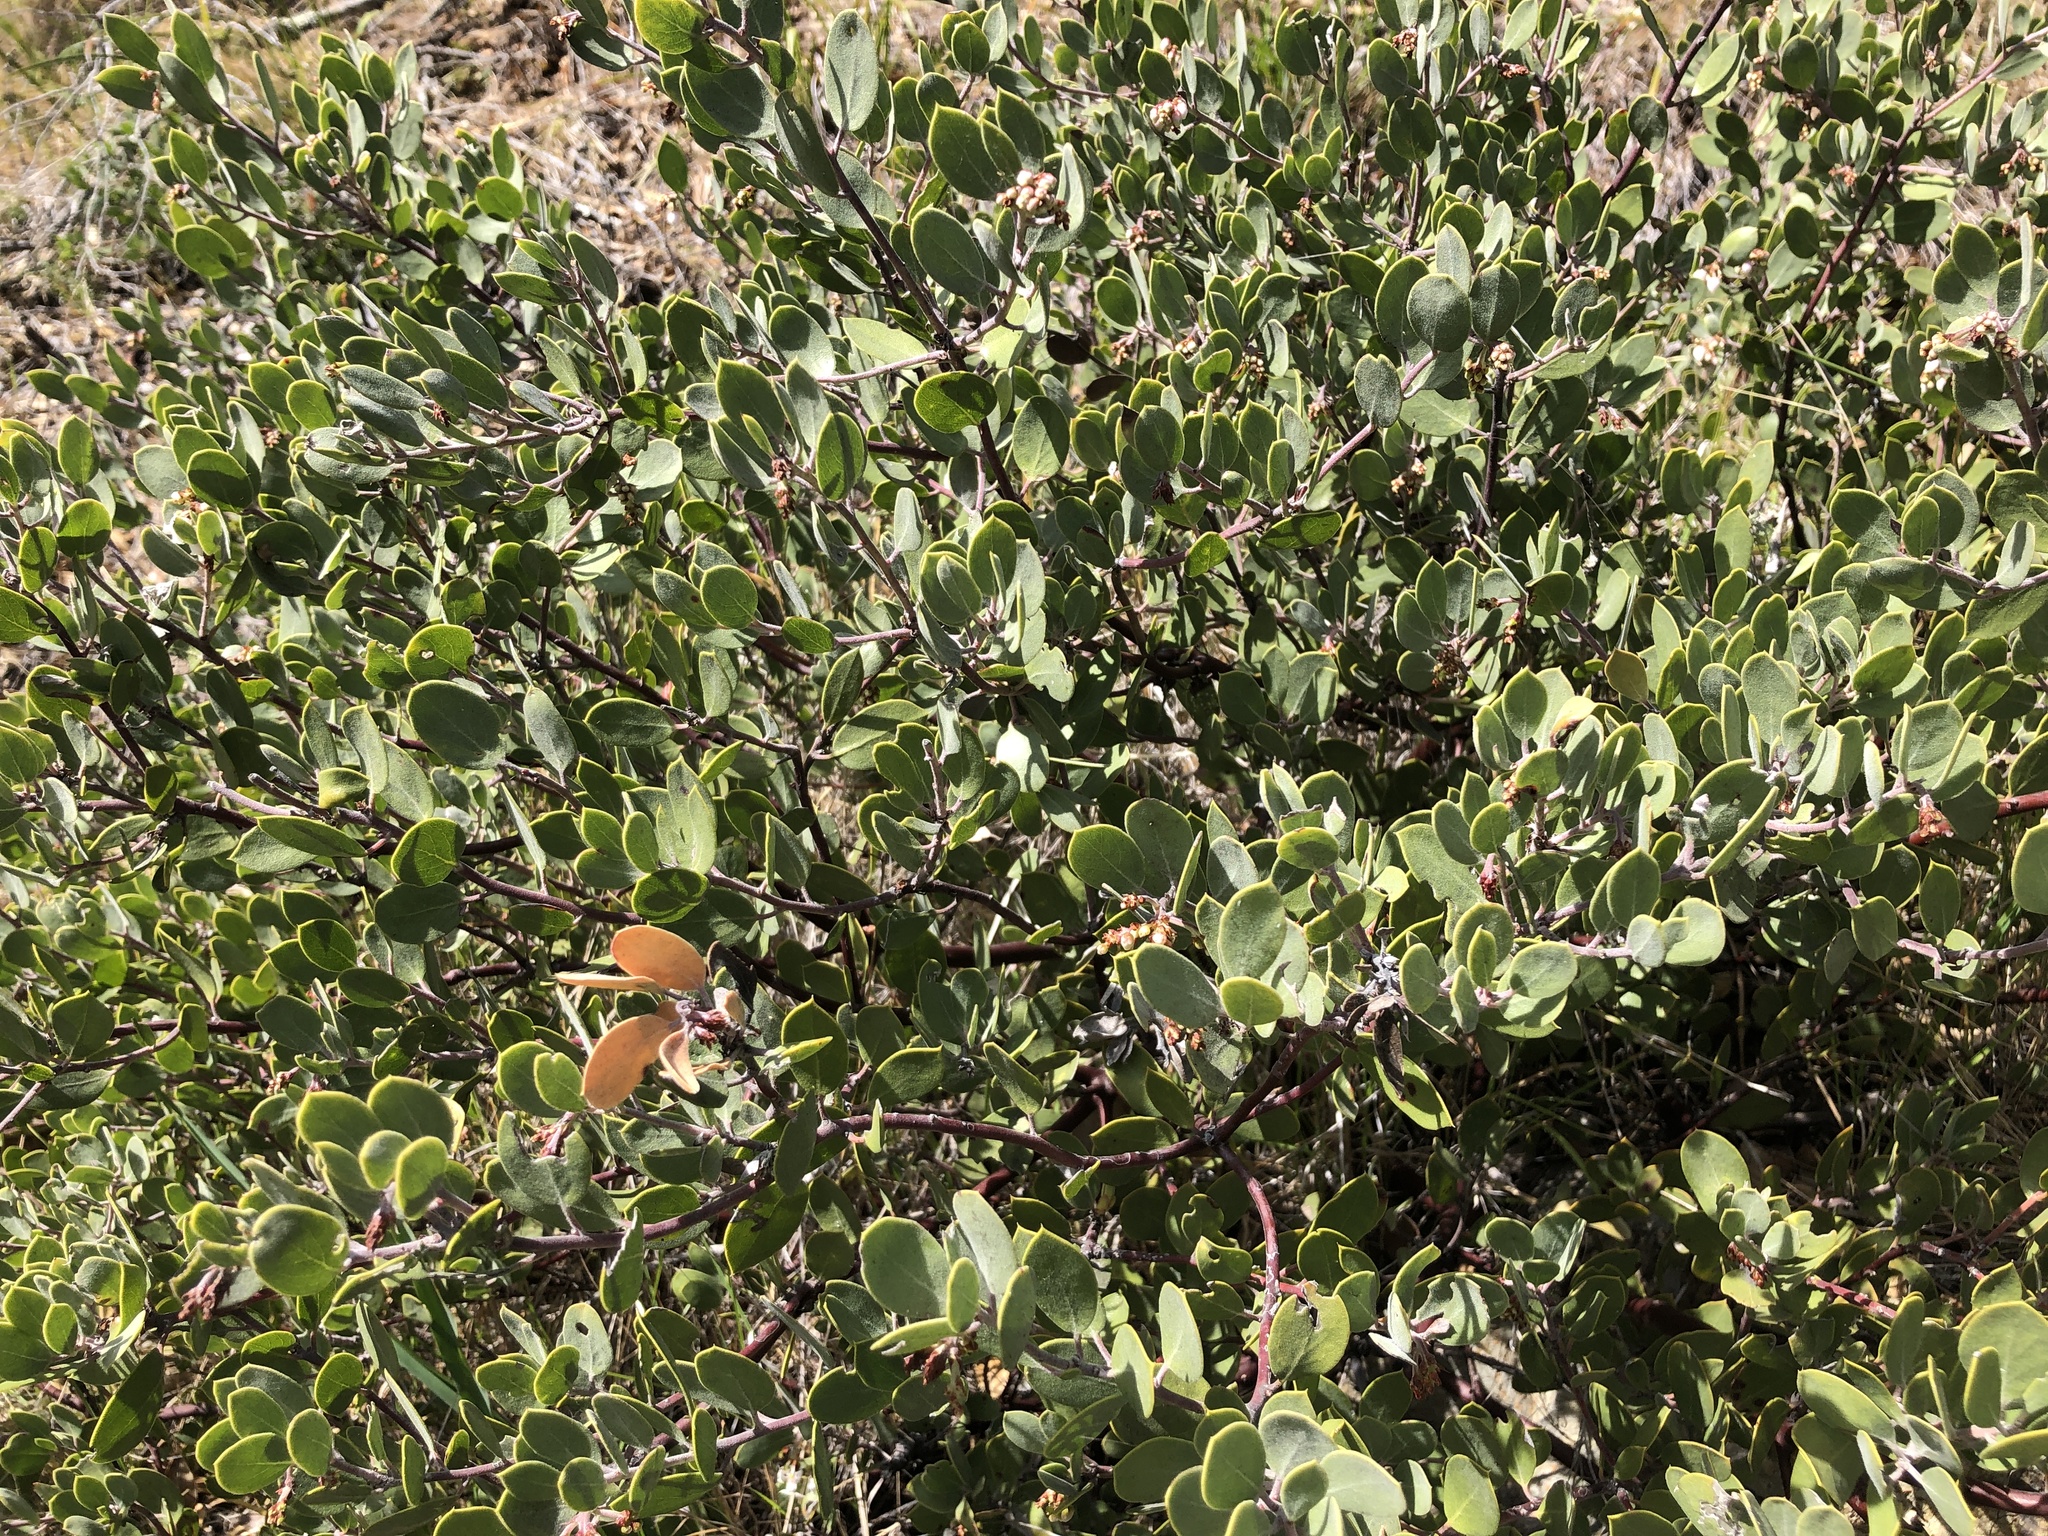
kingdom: Plantae
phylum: Tracheophyta
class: Magnoliopsida
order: Ericales
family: Ericaceae
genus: Arctostaphylos
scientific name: Arctostaphylos montana
